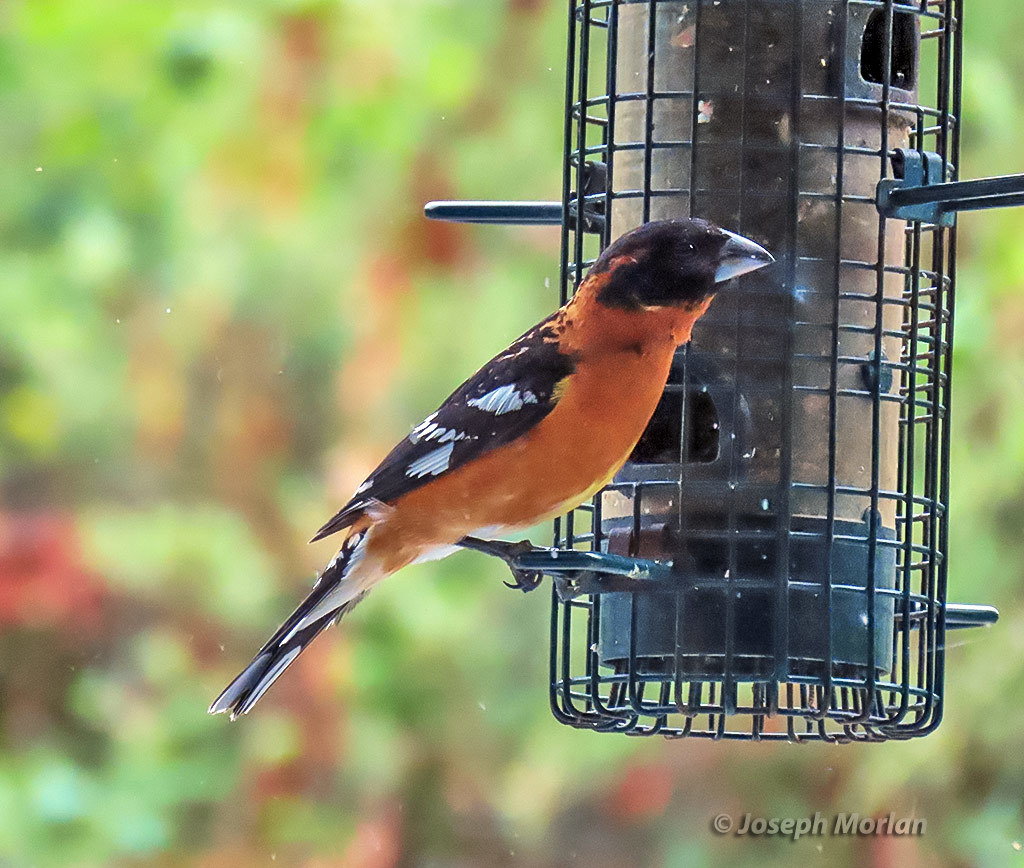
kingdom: Animalia
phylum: Chordata
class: Aves
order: Passeriformes
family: Cardinalidae
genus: Pheucticus
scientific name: Pheucticus melanocephalus
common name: Black-headed grosbeak
